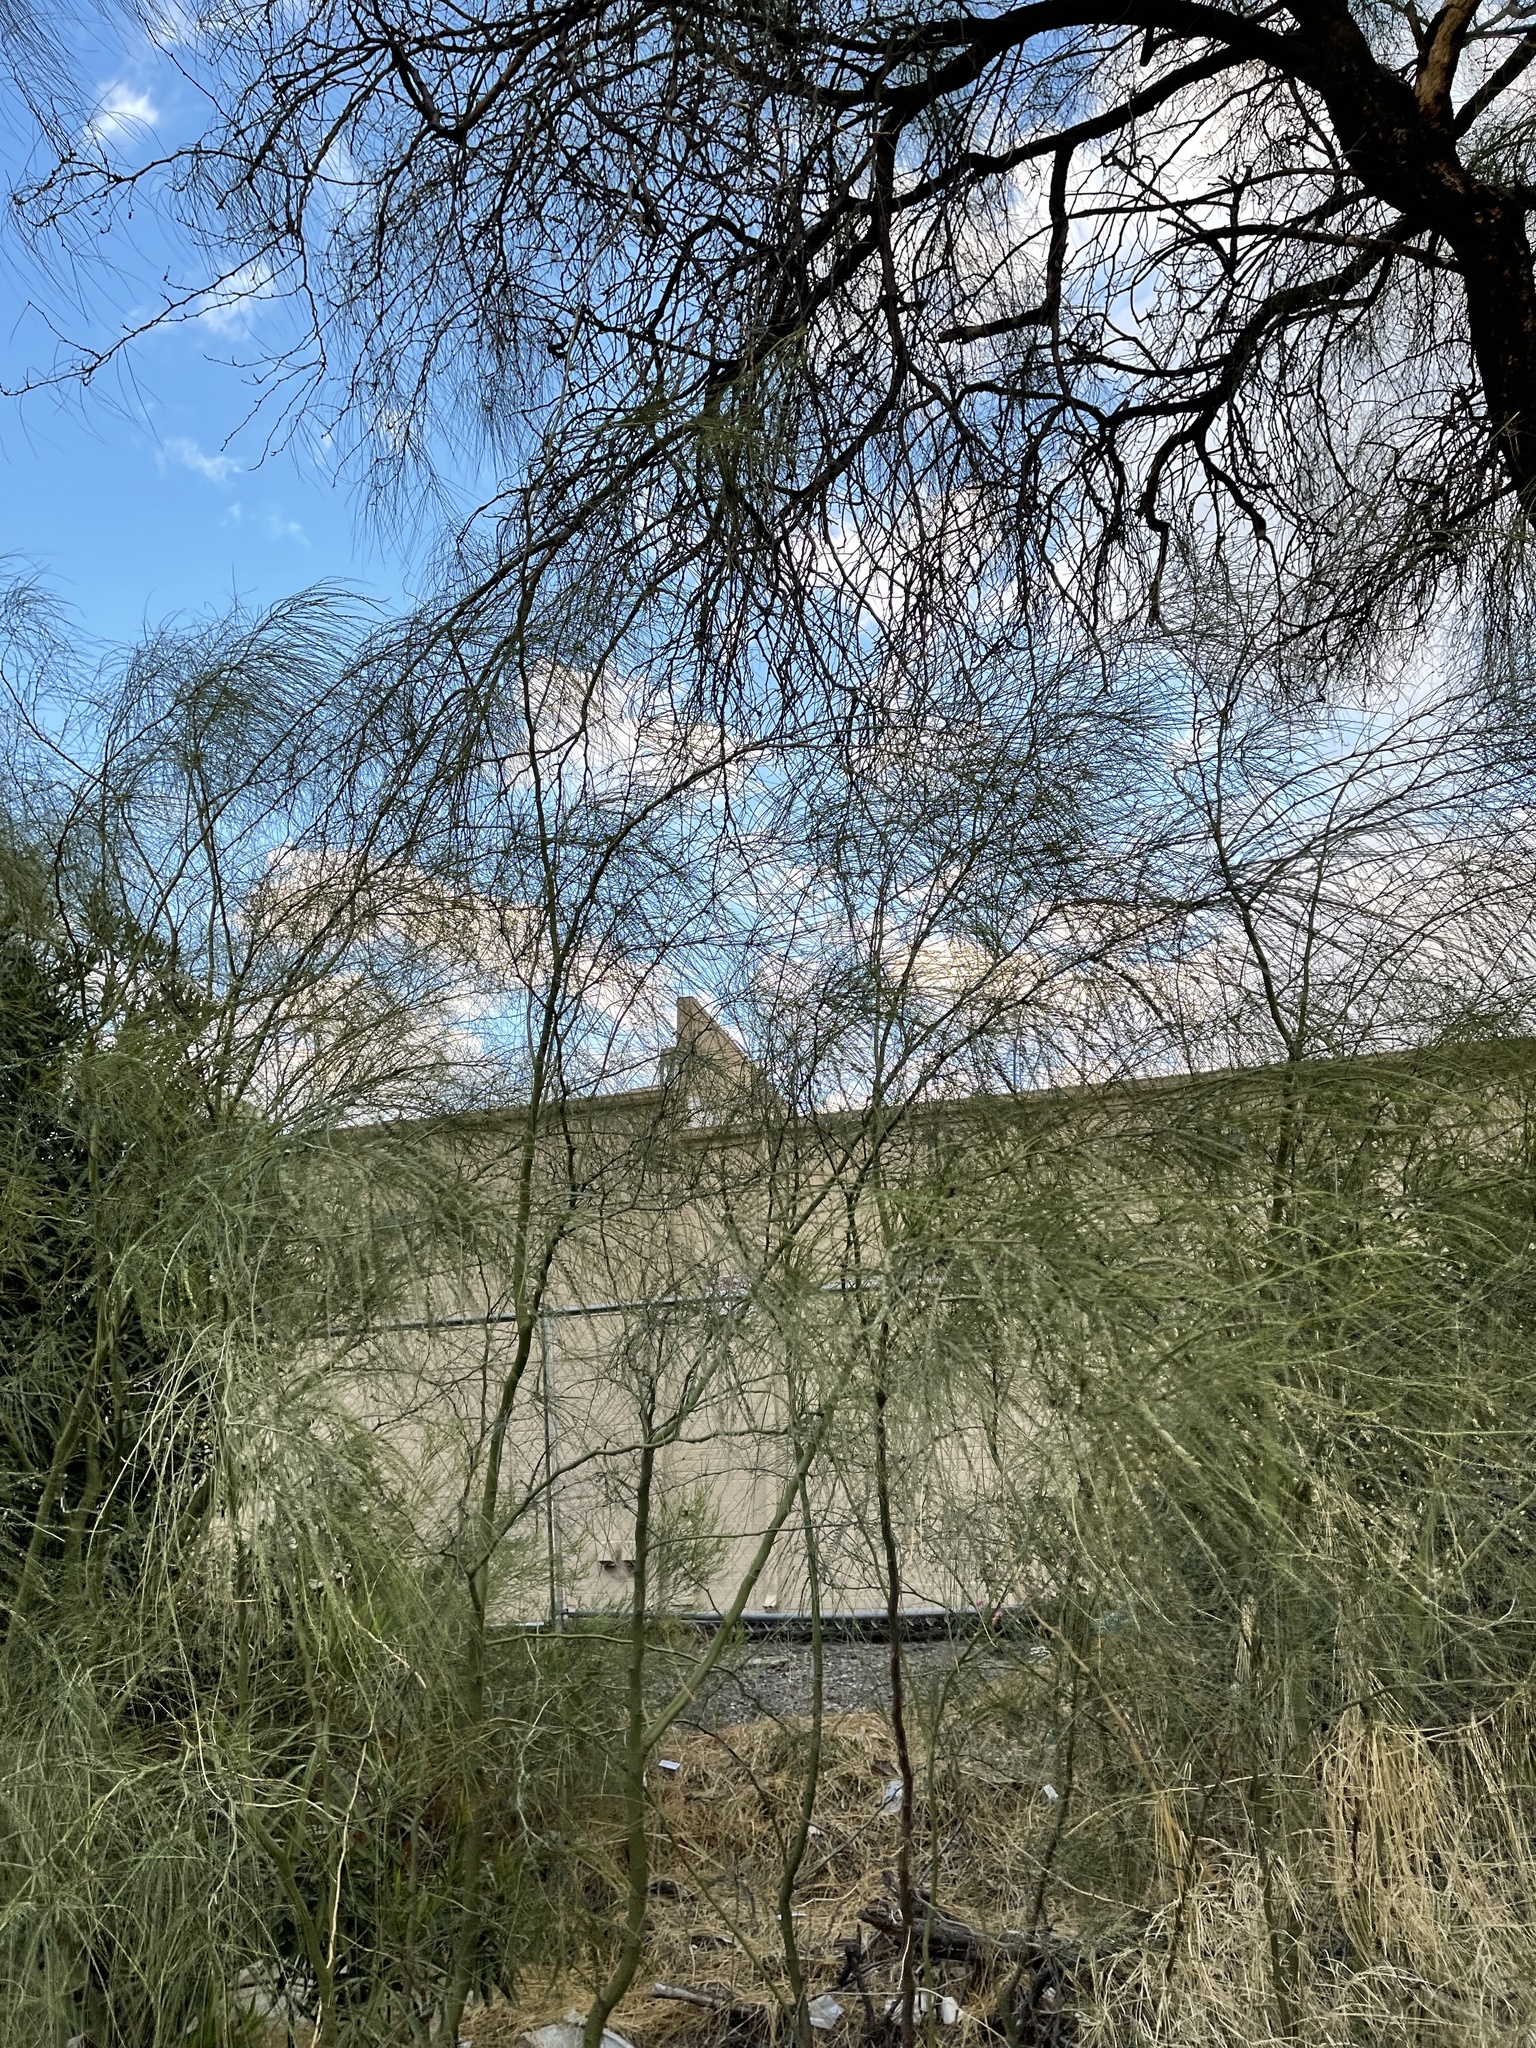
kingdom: Plantae
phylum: Tracheophyta
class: Magnoliopsida
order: Fabales
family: Fabaceae
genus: Parkinsonia
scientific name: Parkinsonia aculeata
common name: Jerusalem thorn
